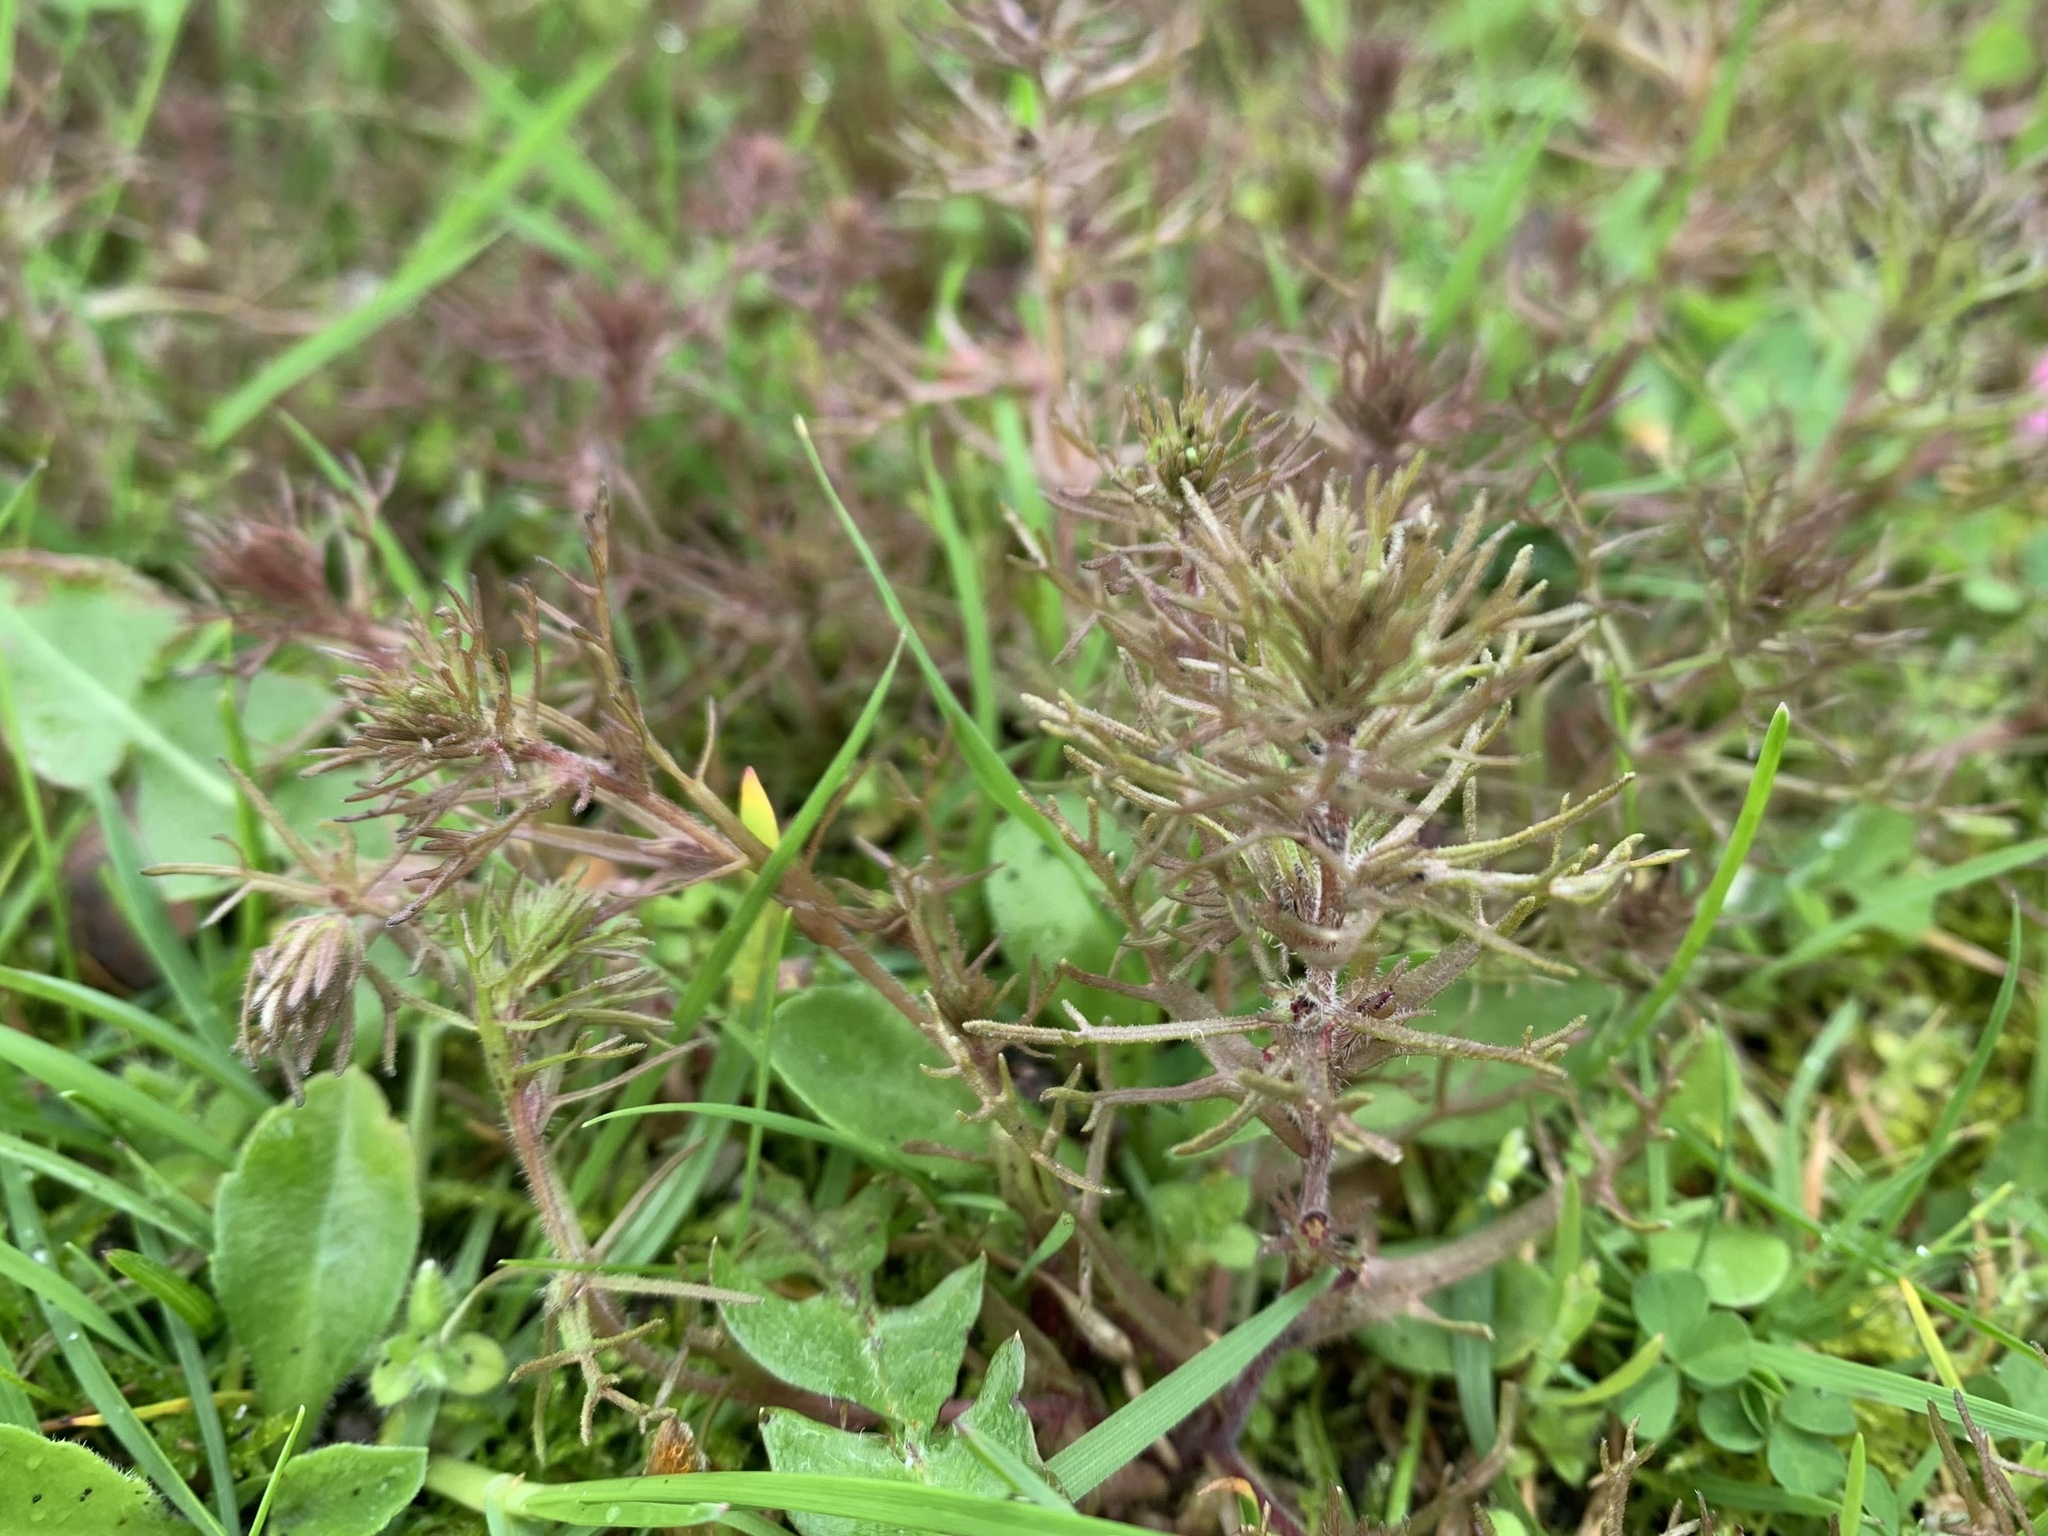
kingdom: Plantae
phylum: Tracheophyta
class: Magnoliopsida
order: Lamiales
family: Orobanchaceae
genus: Triphysaria
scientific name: Triphysaria pusilla
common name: Dwarf false owl-clover
